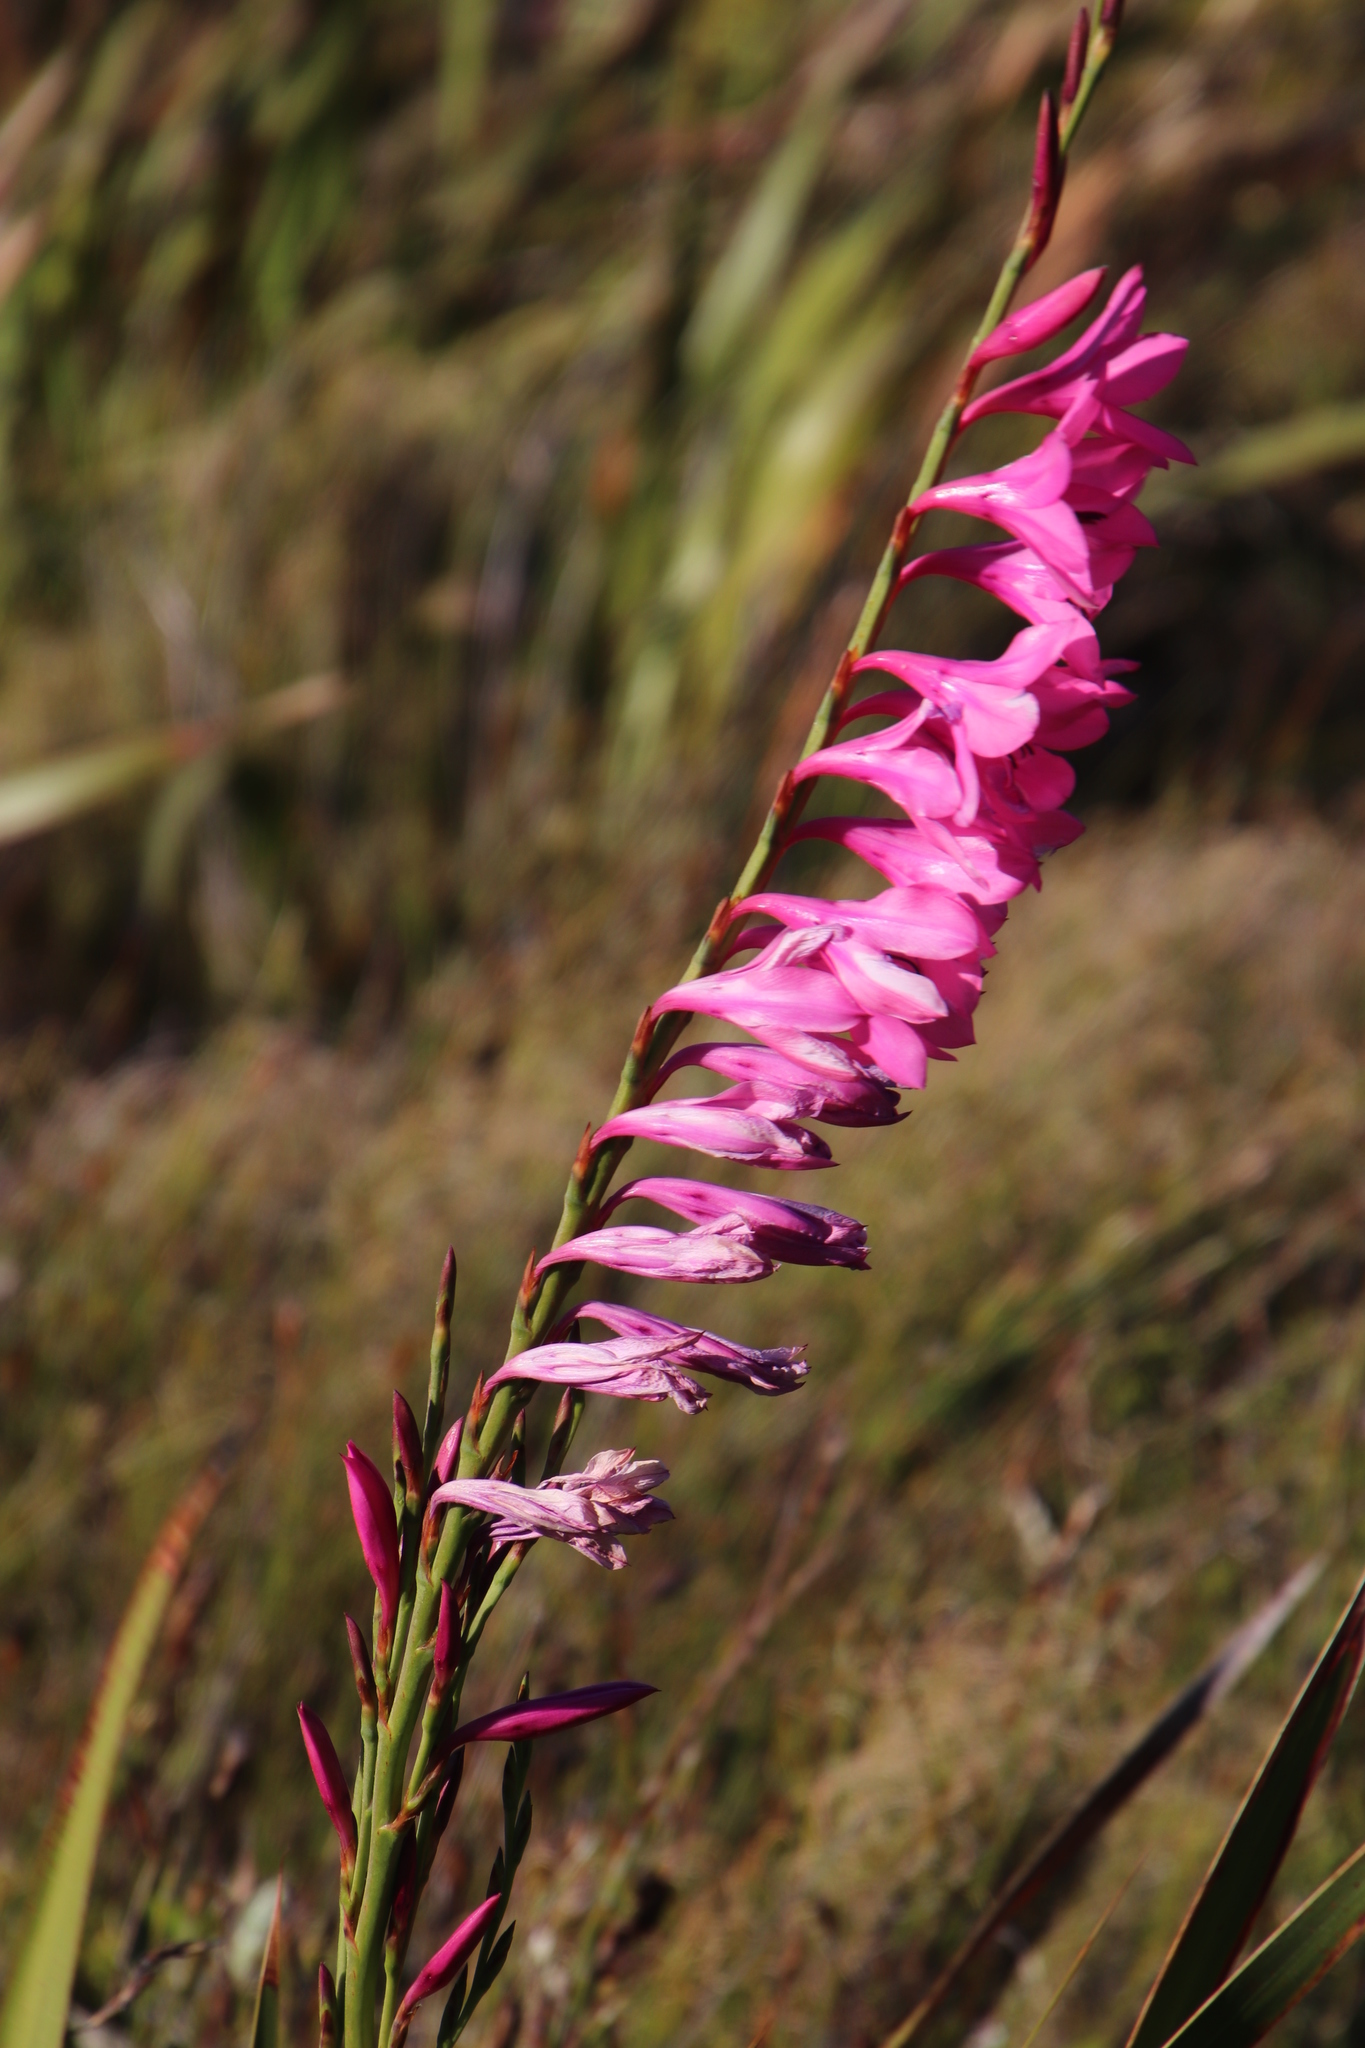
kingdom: Plantae
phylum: Tracheophyta
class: Liliopsida
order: Asparagales
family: Iridaceae
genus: Watsonia
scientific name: Watsonia borbonica
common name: Bugle-lily
